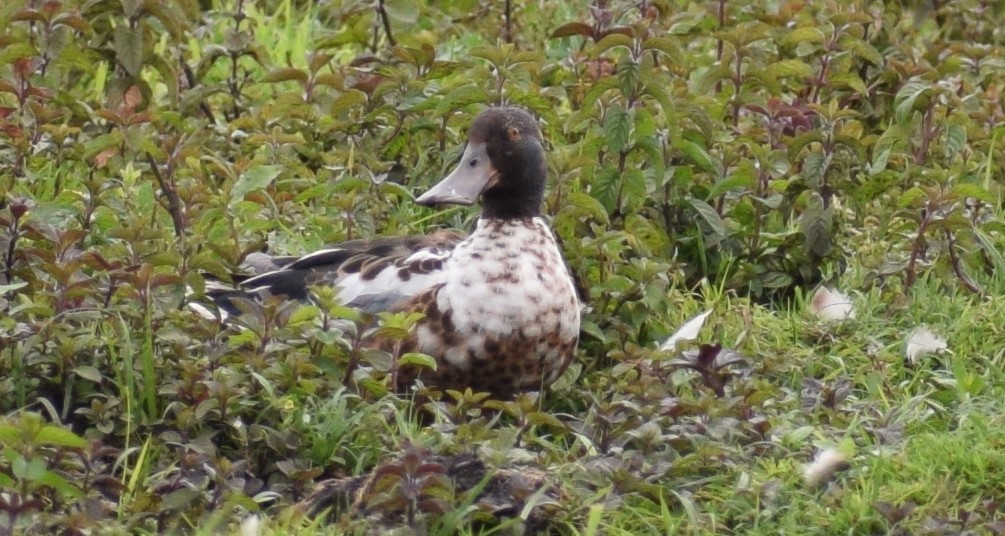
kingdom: Animalia
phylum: Chordata
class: Aves
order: Anseriformes
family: Anatidae
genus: Spatula
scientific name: Spatula clypeata
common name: Northern shoveler
